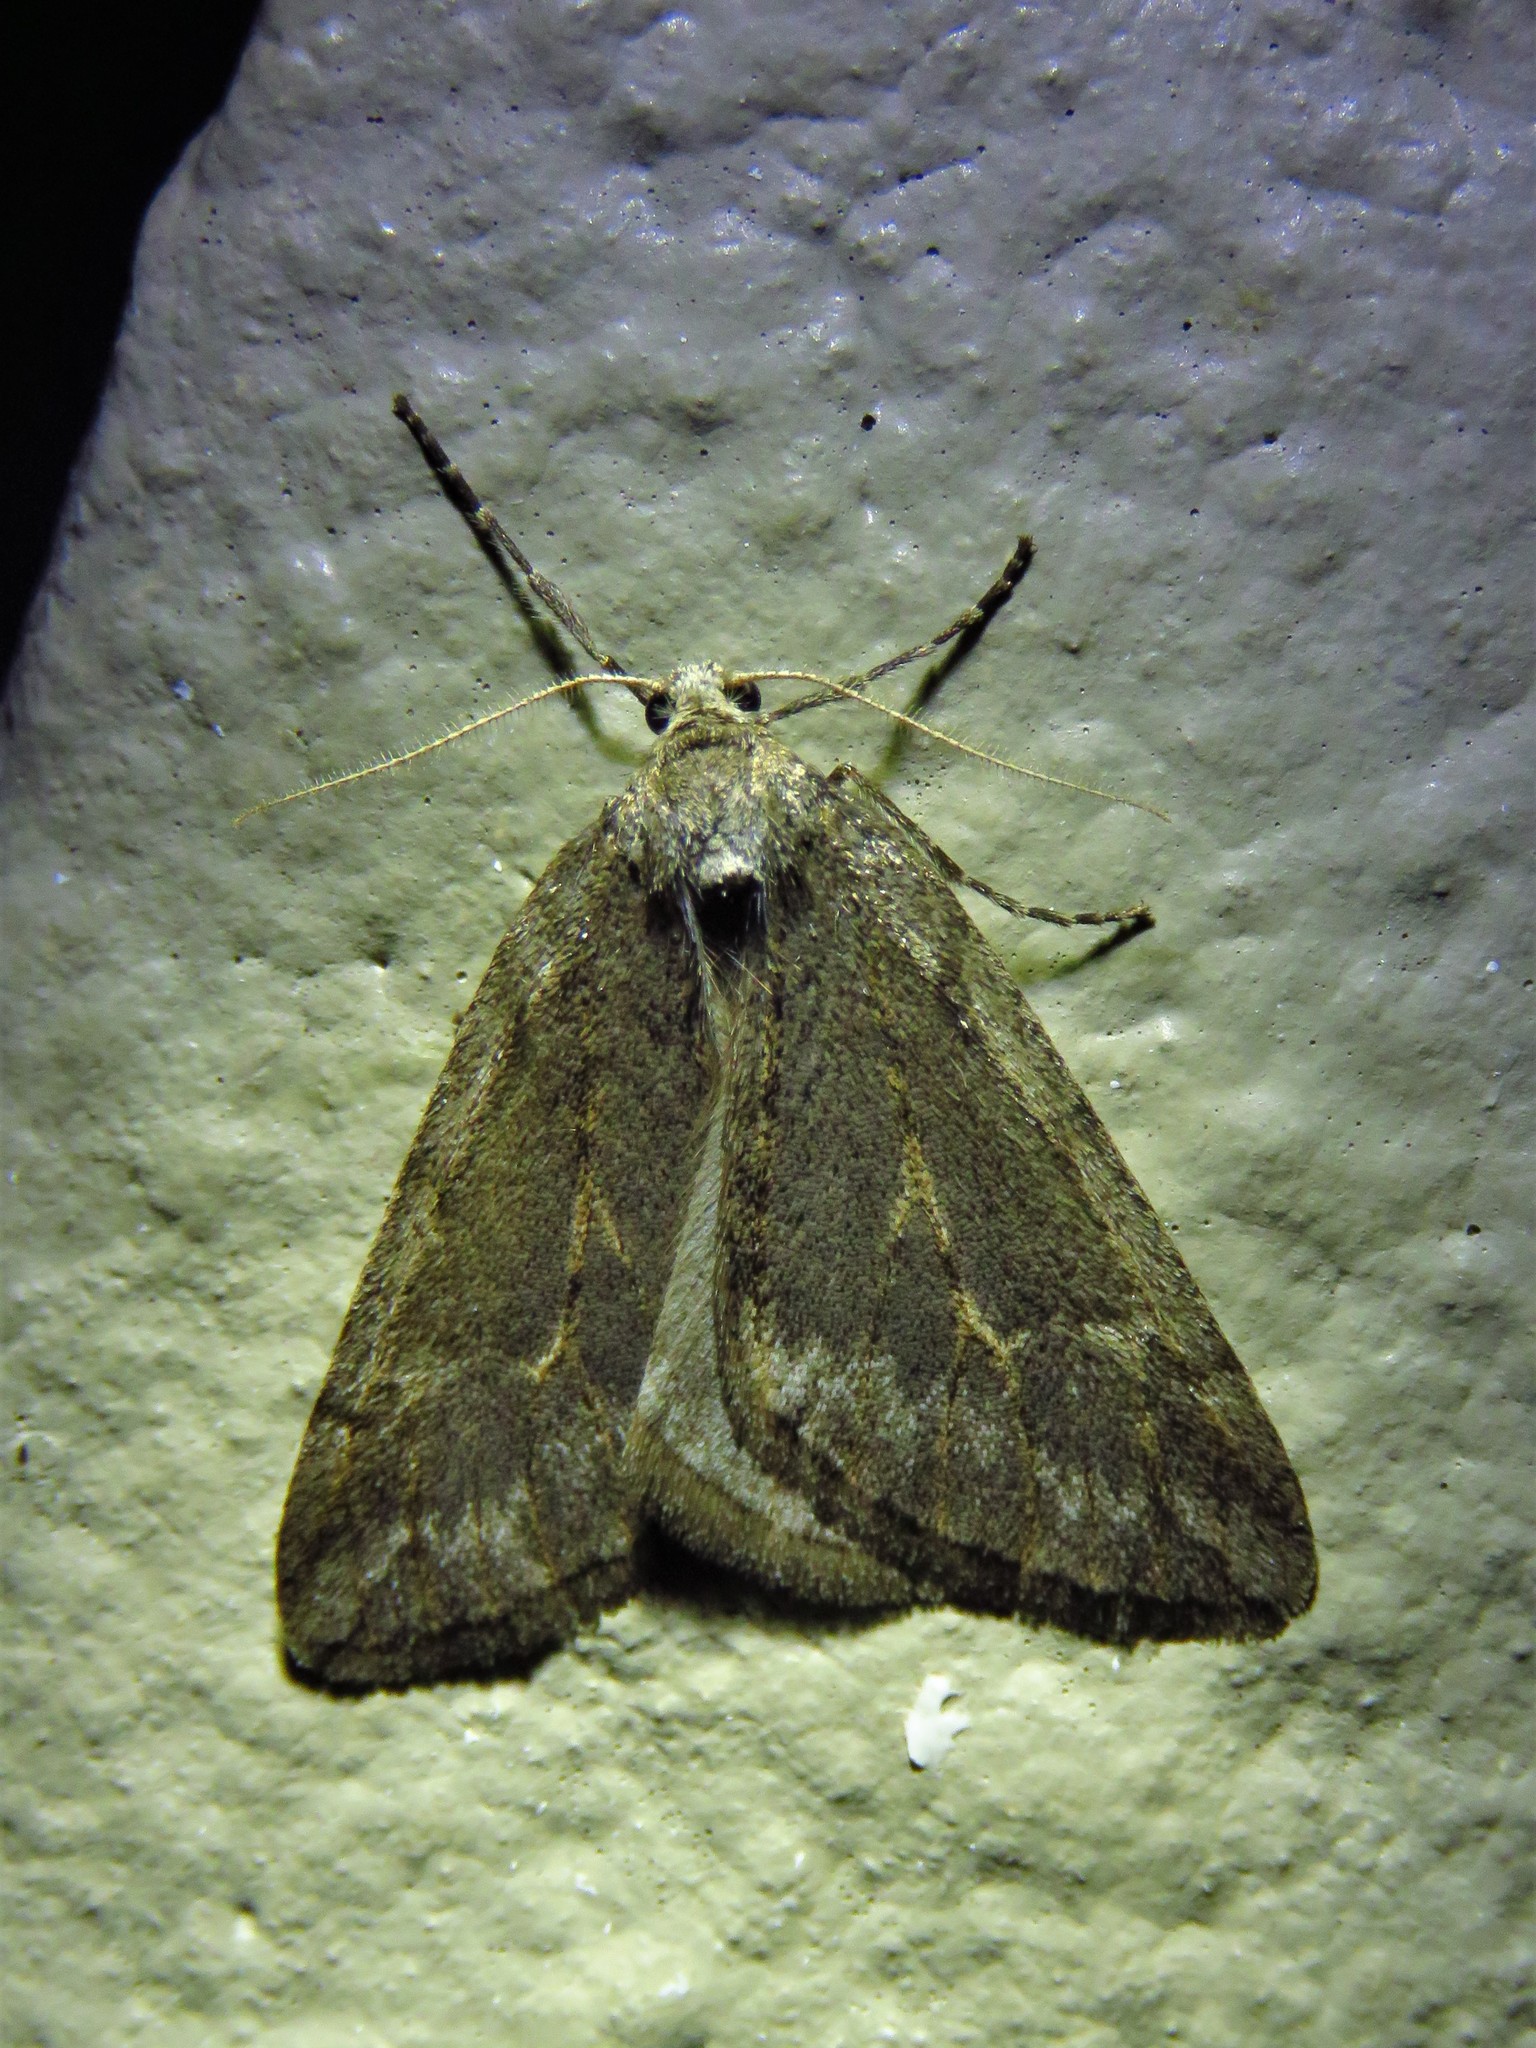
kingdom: Animalia
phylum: Arthropoda
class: Insecta
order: Lepidoptera
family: Geometridae
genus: Paleacrita
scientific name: Paleacrita vernata
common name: Spring cankerworm
